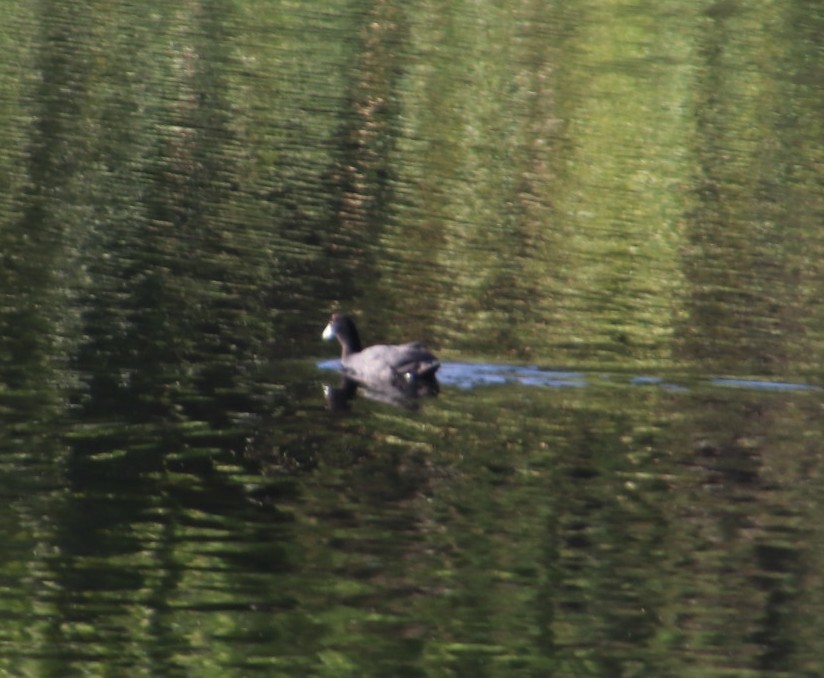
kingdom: Animalia
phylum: Chordata
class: Aves
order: Gruiformes
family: Rallidae
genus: Fulica
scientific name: Fulica cristata
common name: Red-knobbed coot
